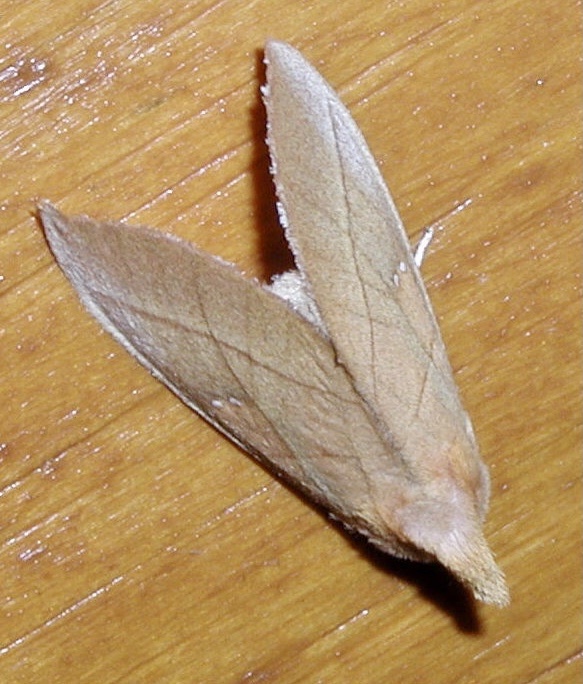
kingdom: Animalia
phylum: Arthropoda
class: Insecta
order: Lepidoptera
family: Notodontidae
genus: Nadata
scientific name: Nadata gibbosa
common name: White-dotted prominent
